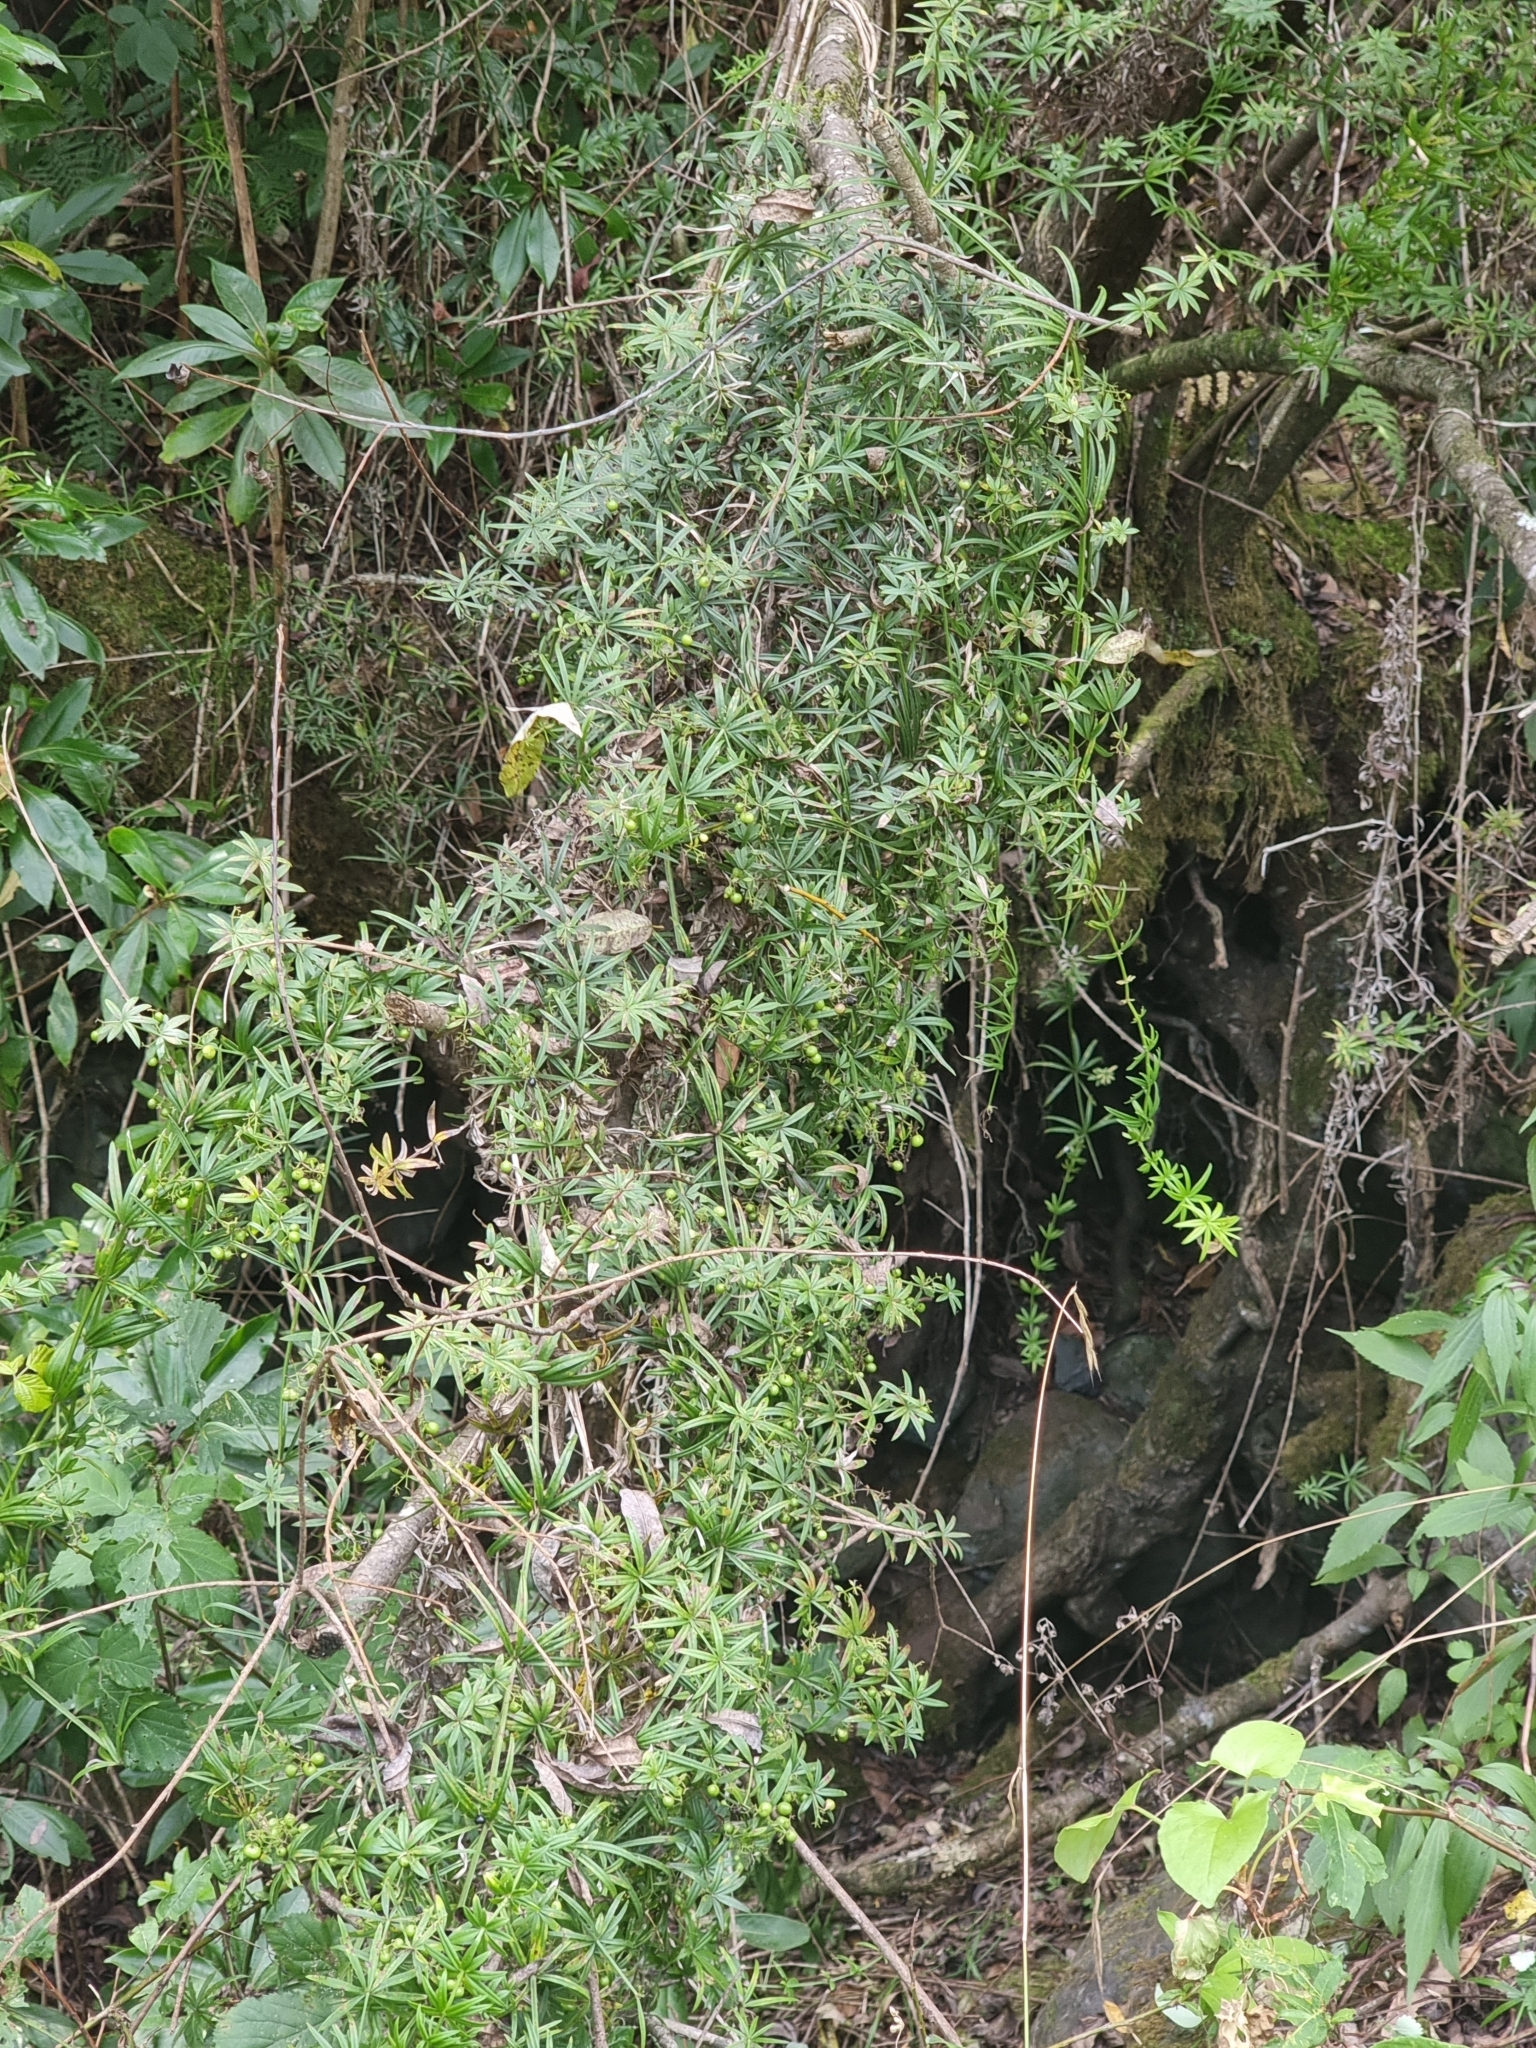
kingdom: Plantae
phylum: Tracheophyta
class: Magnoliopsida
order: Gentianales
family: Rubiaceae
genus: Rubia
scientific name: Rubia occidens
